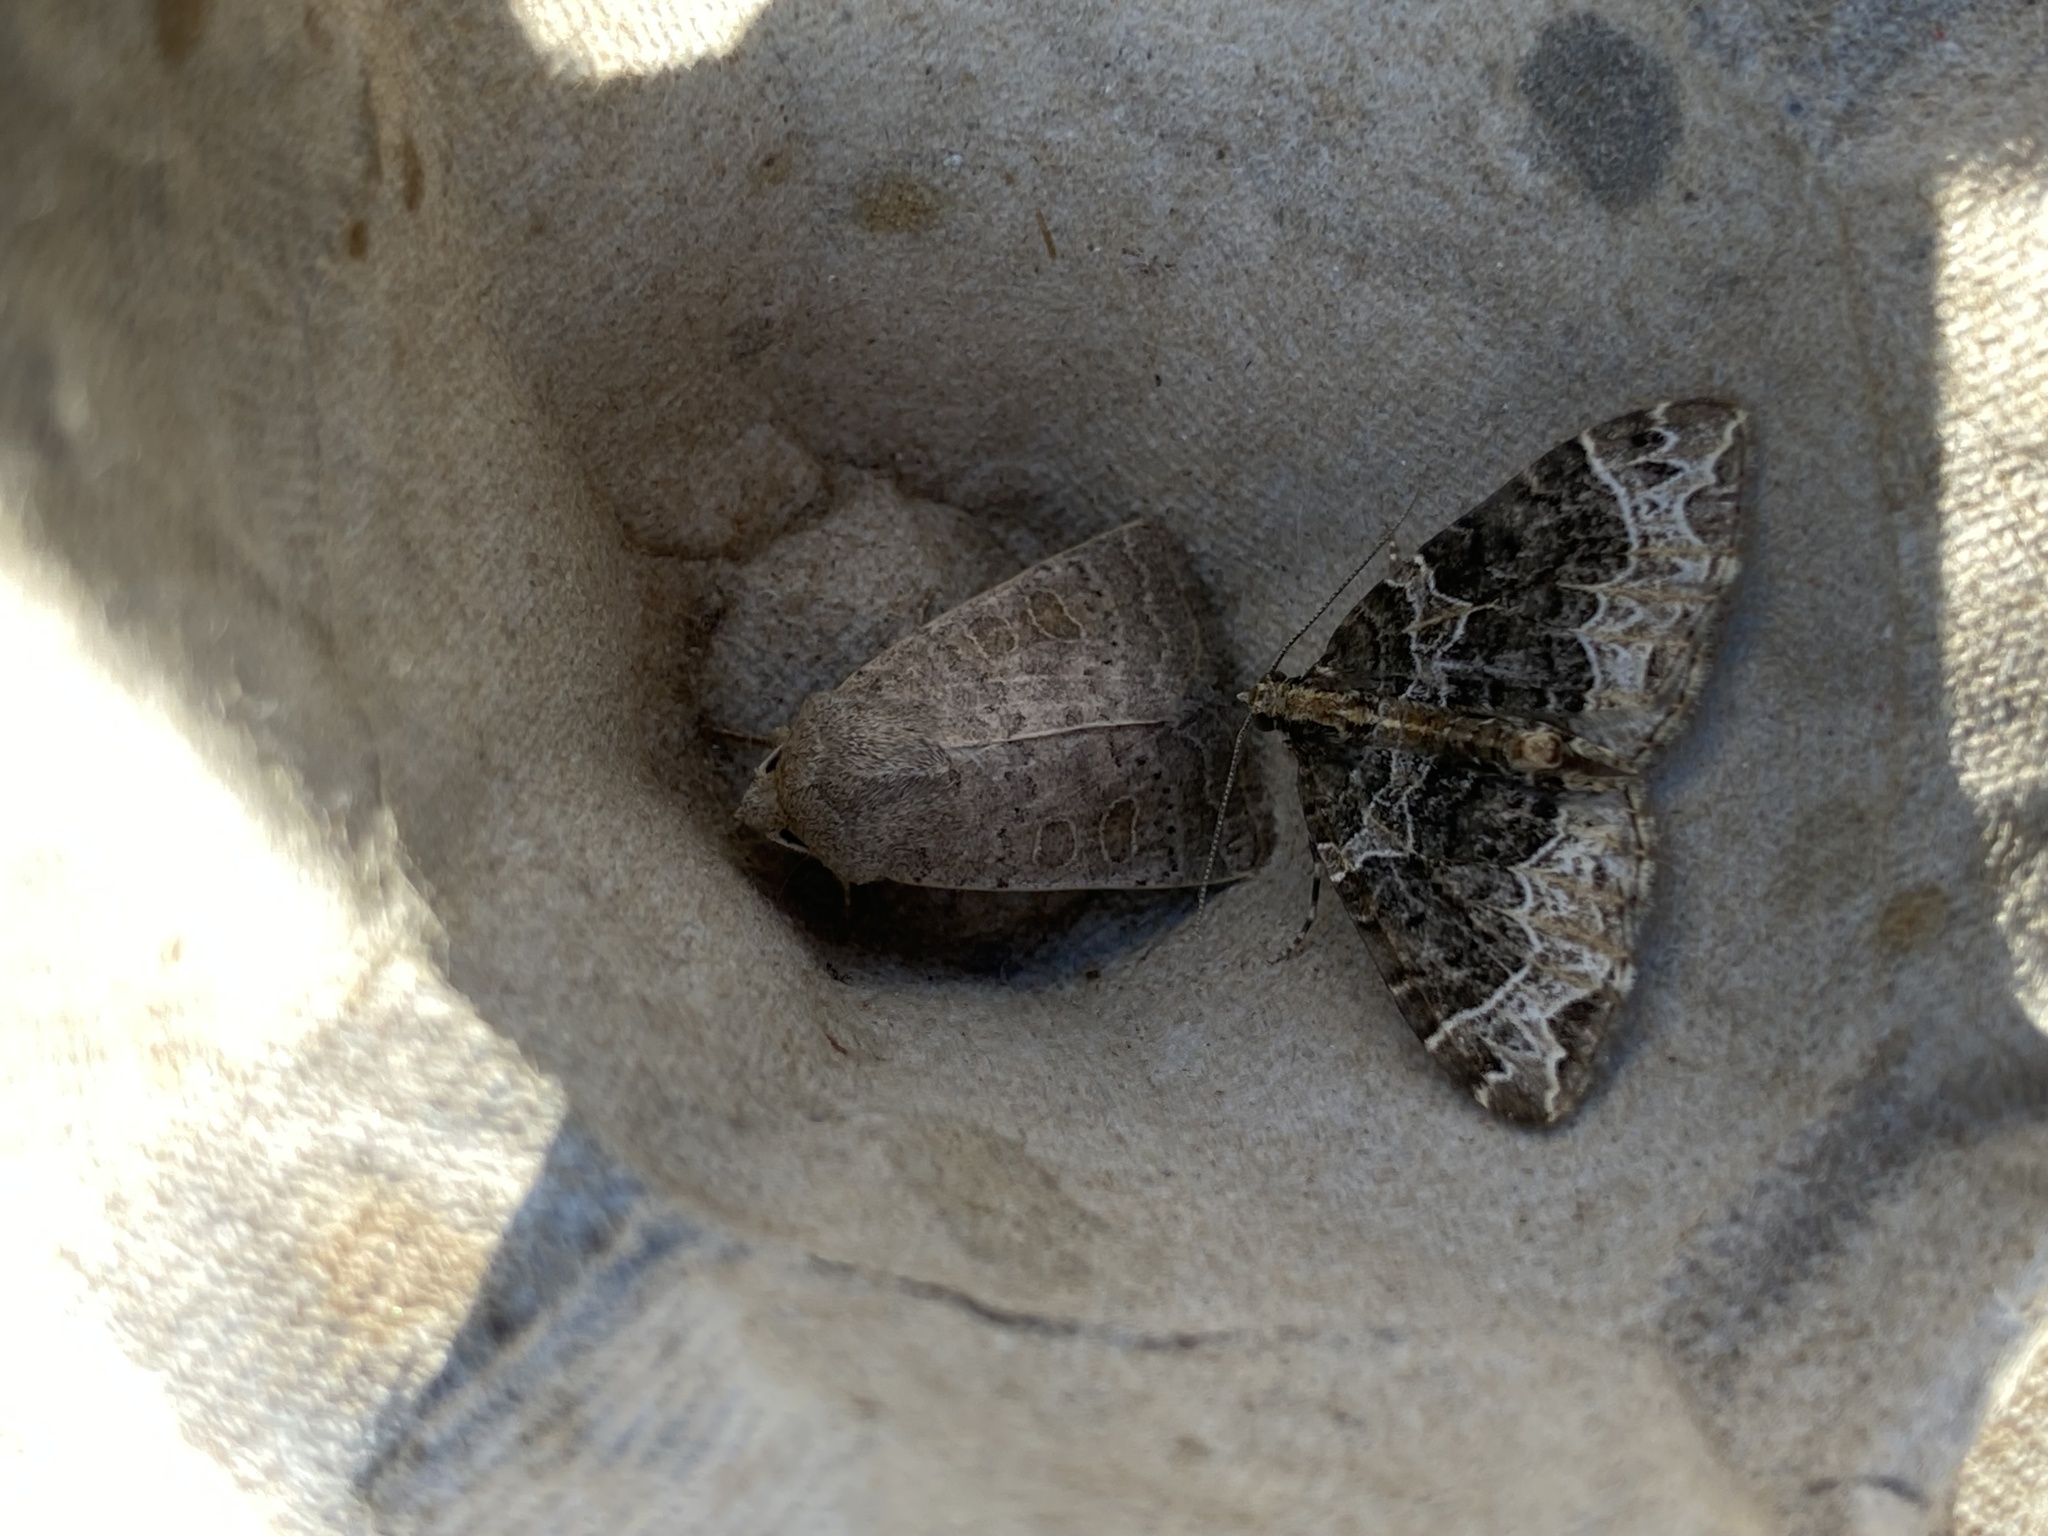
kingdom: Animalia
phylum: Arthropoda
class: Insecta
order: Lepidoptera
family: Geometridae
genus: Ecliptopera
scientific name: Ecliptopera silaceata
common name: Small phoenix
